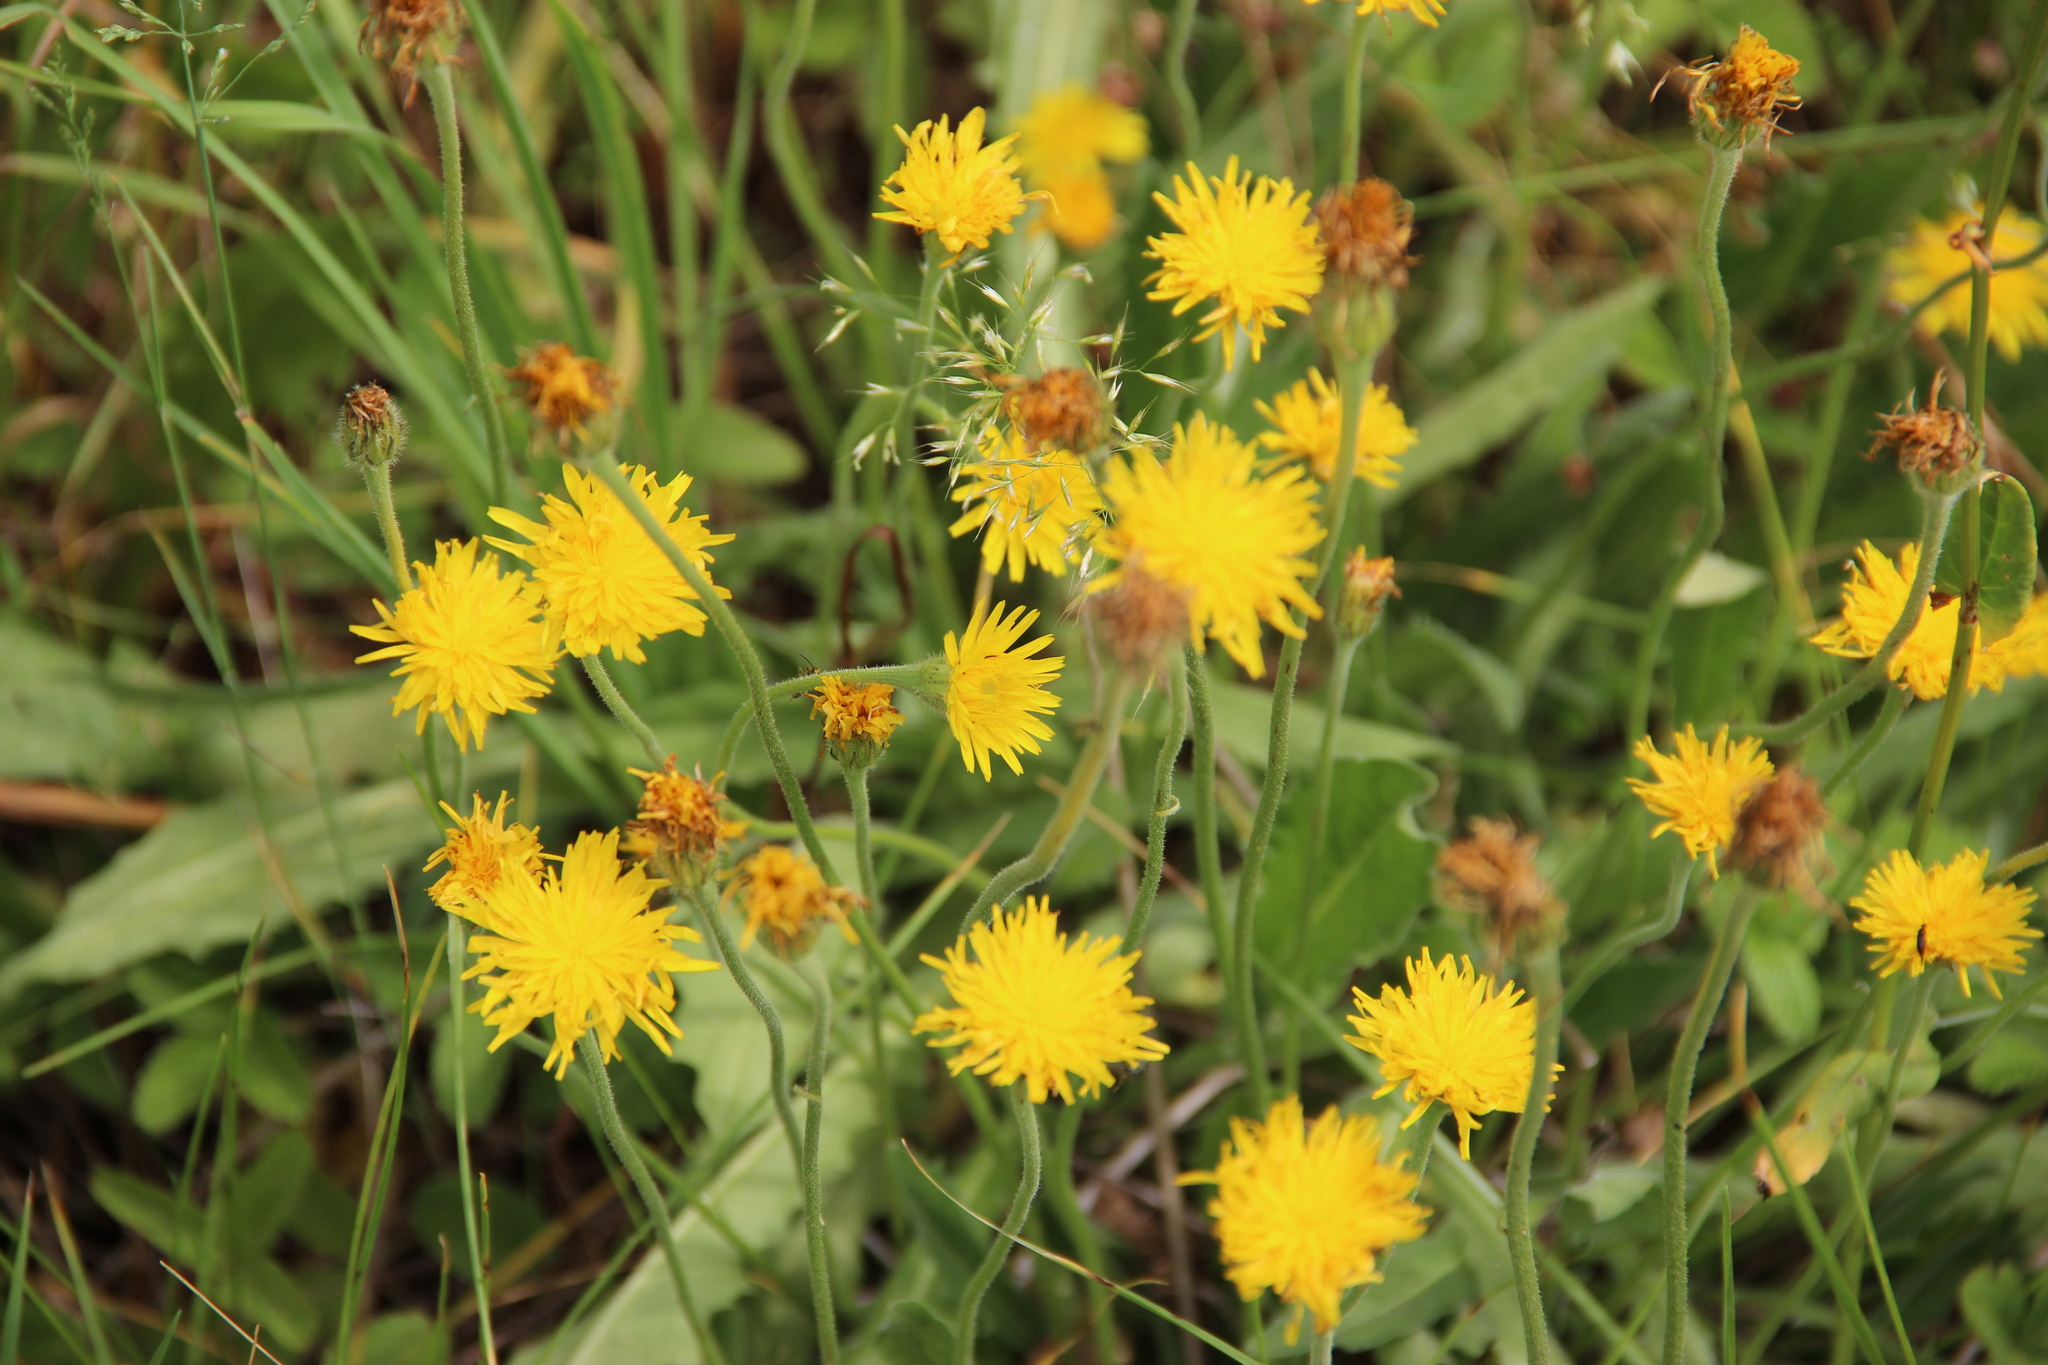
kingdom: Plantae
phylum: Tracheophyta
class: Magnoliopsida
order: Asterales
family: Asteraceae
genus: Leontodon
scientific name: Leontodon hispidus
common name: Rough hawkbit
